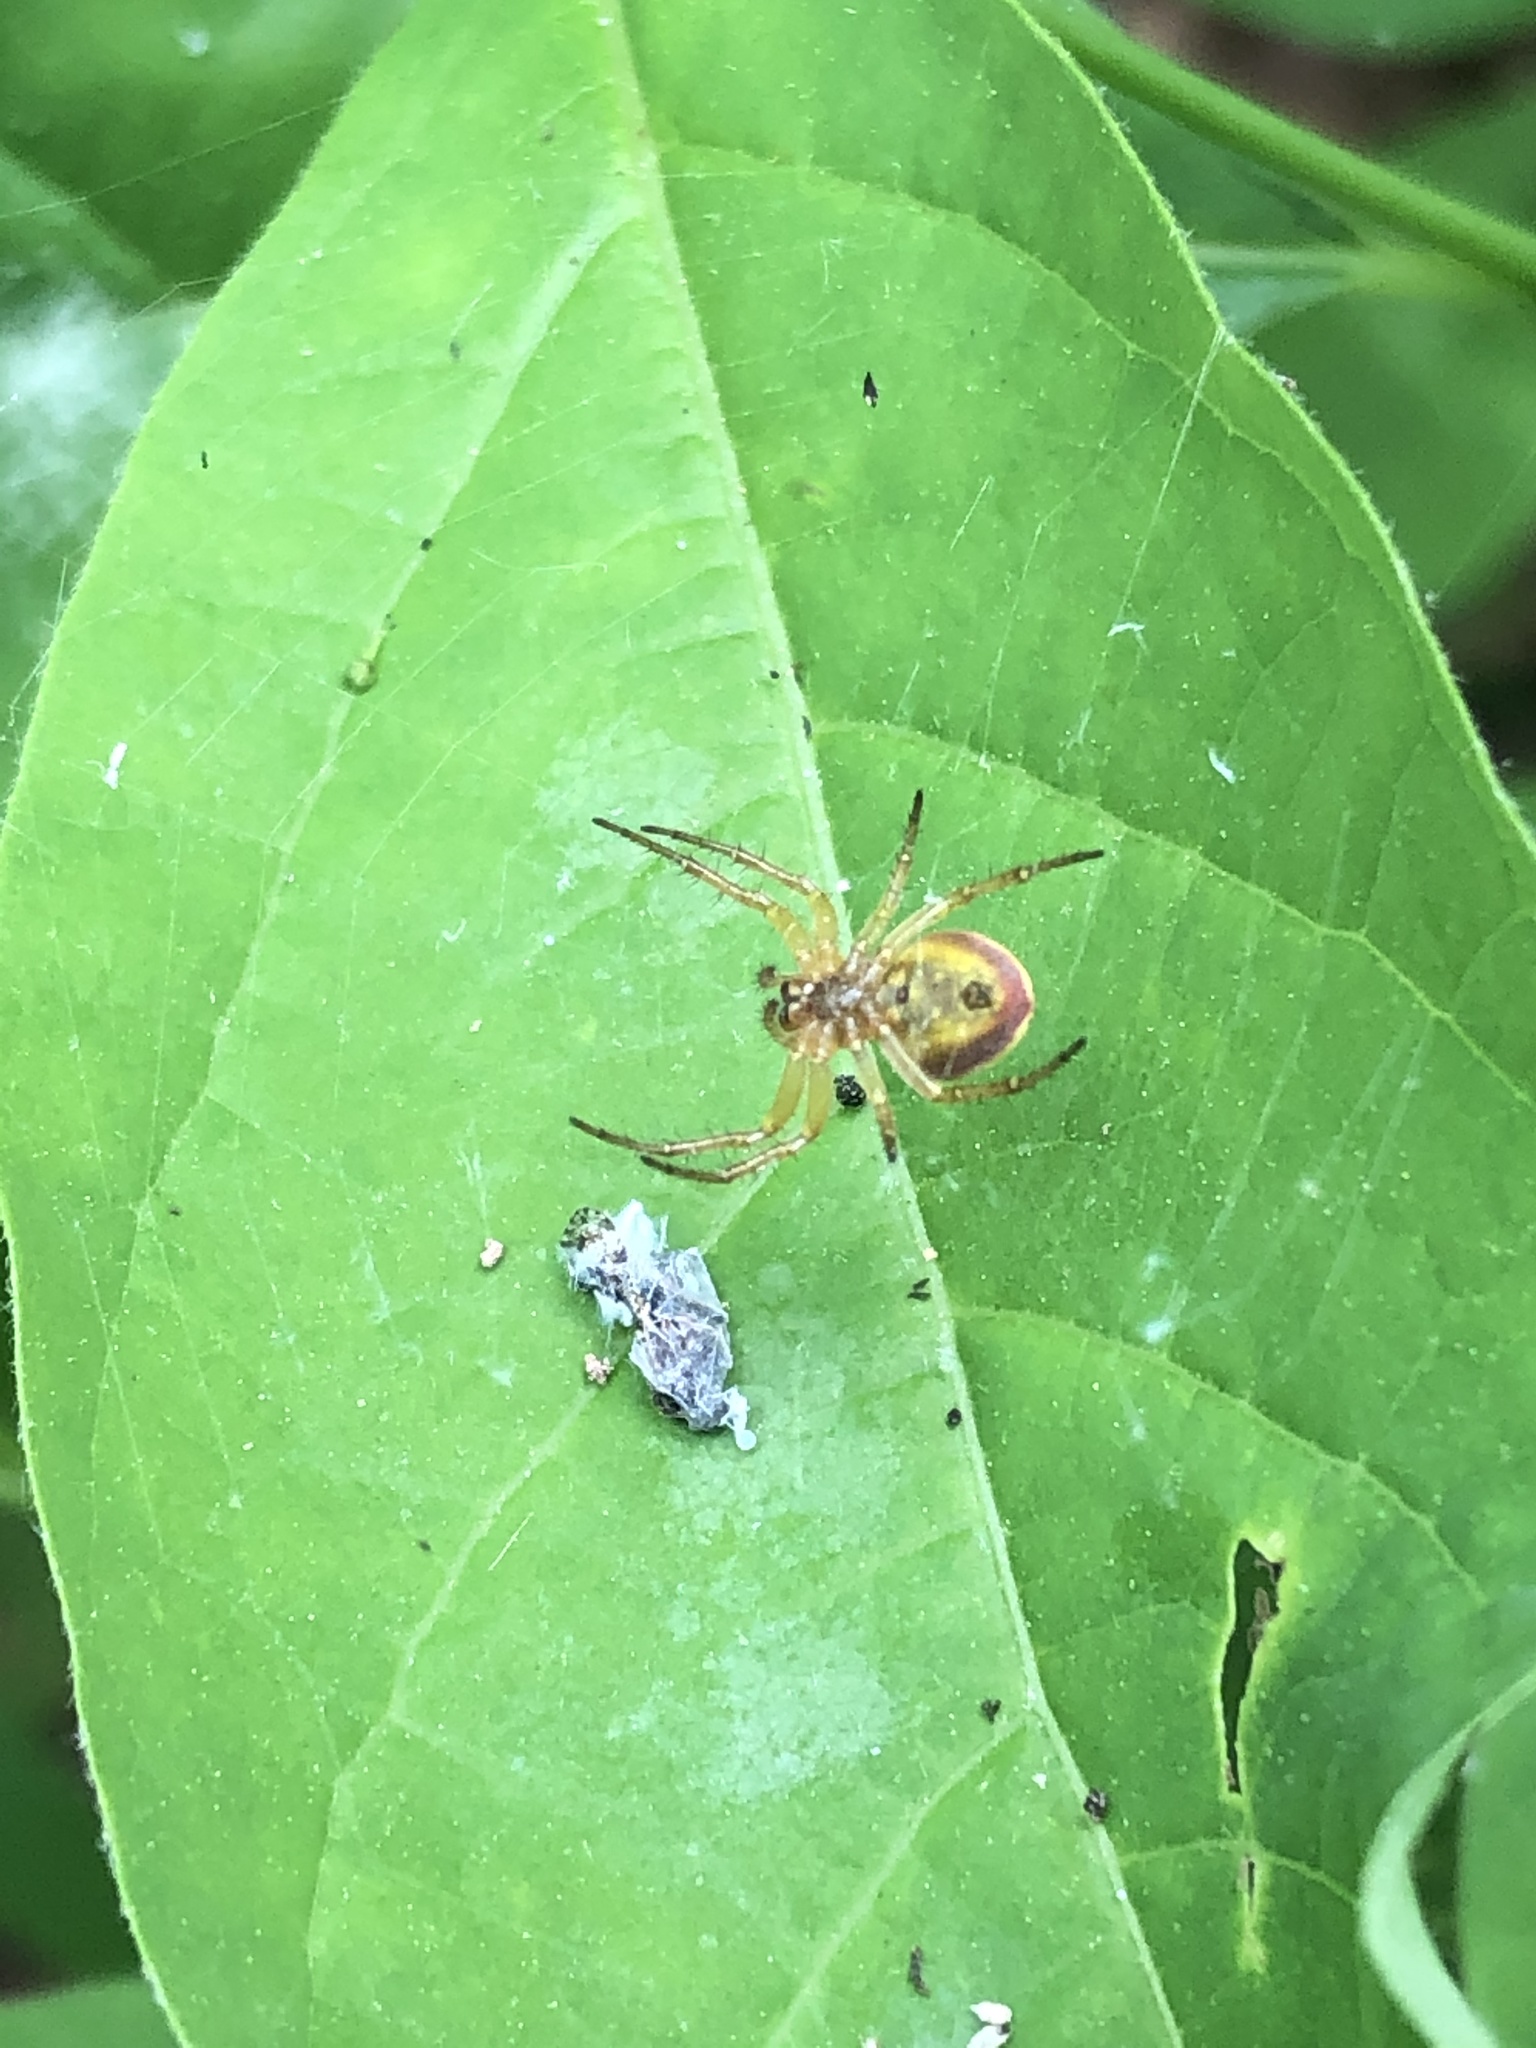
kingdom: Animalia
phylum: Arthropoda
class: Arachnida
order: Araneae
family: Araneidae
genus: Araniella
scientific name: Araniella displicata
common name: Sixspotted orb weaver
